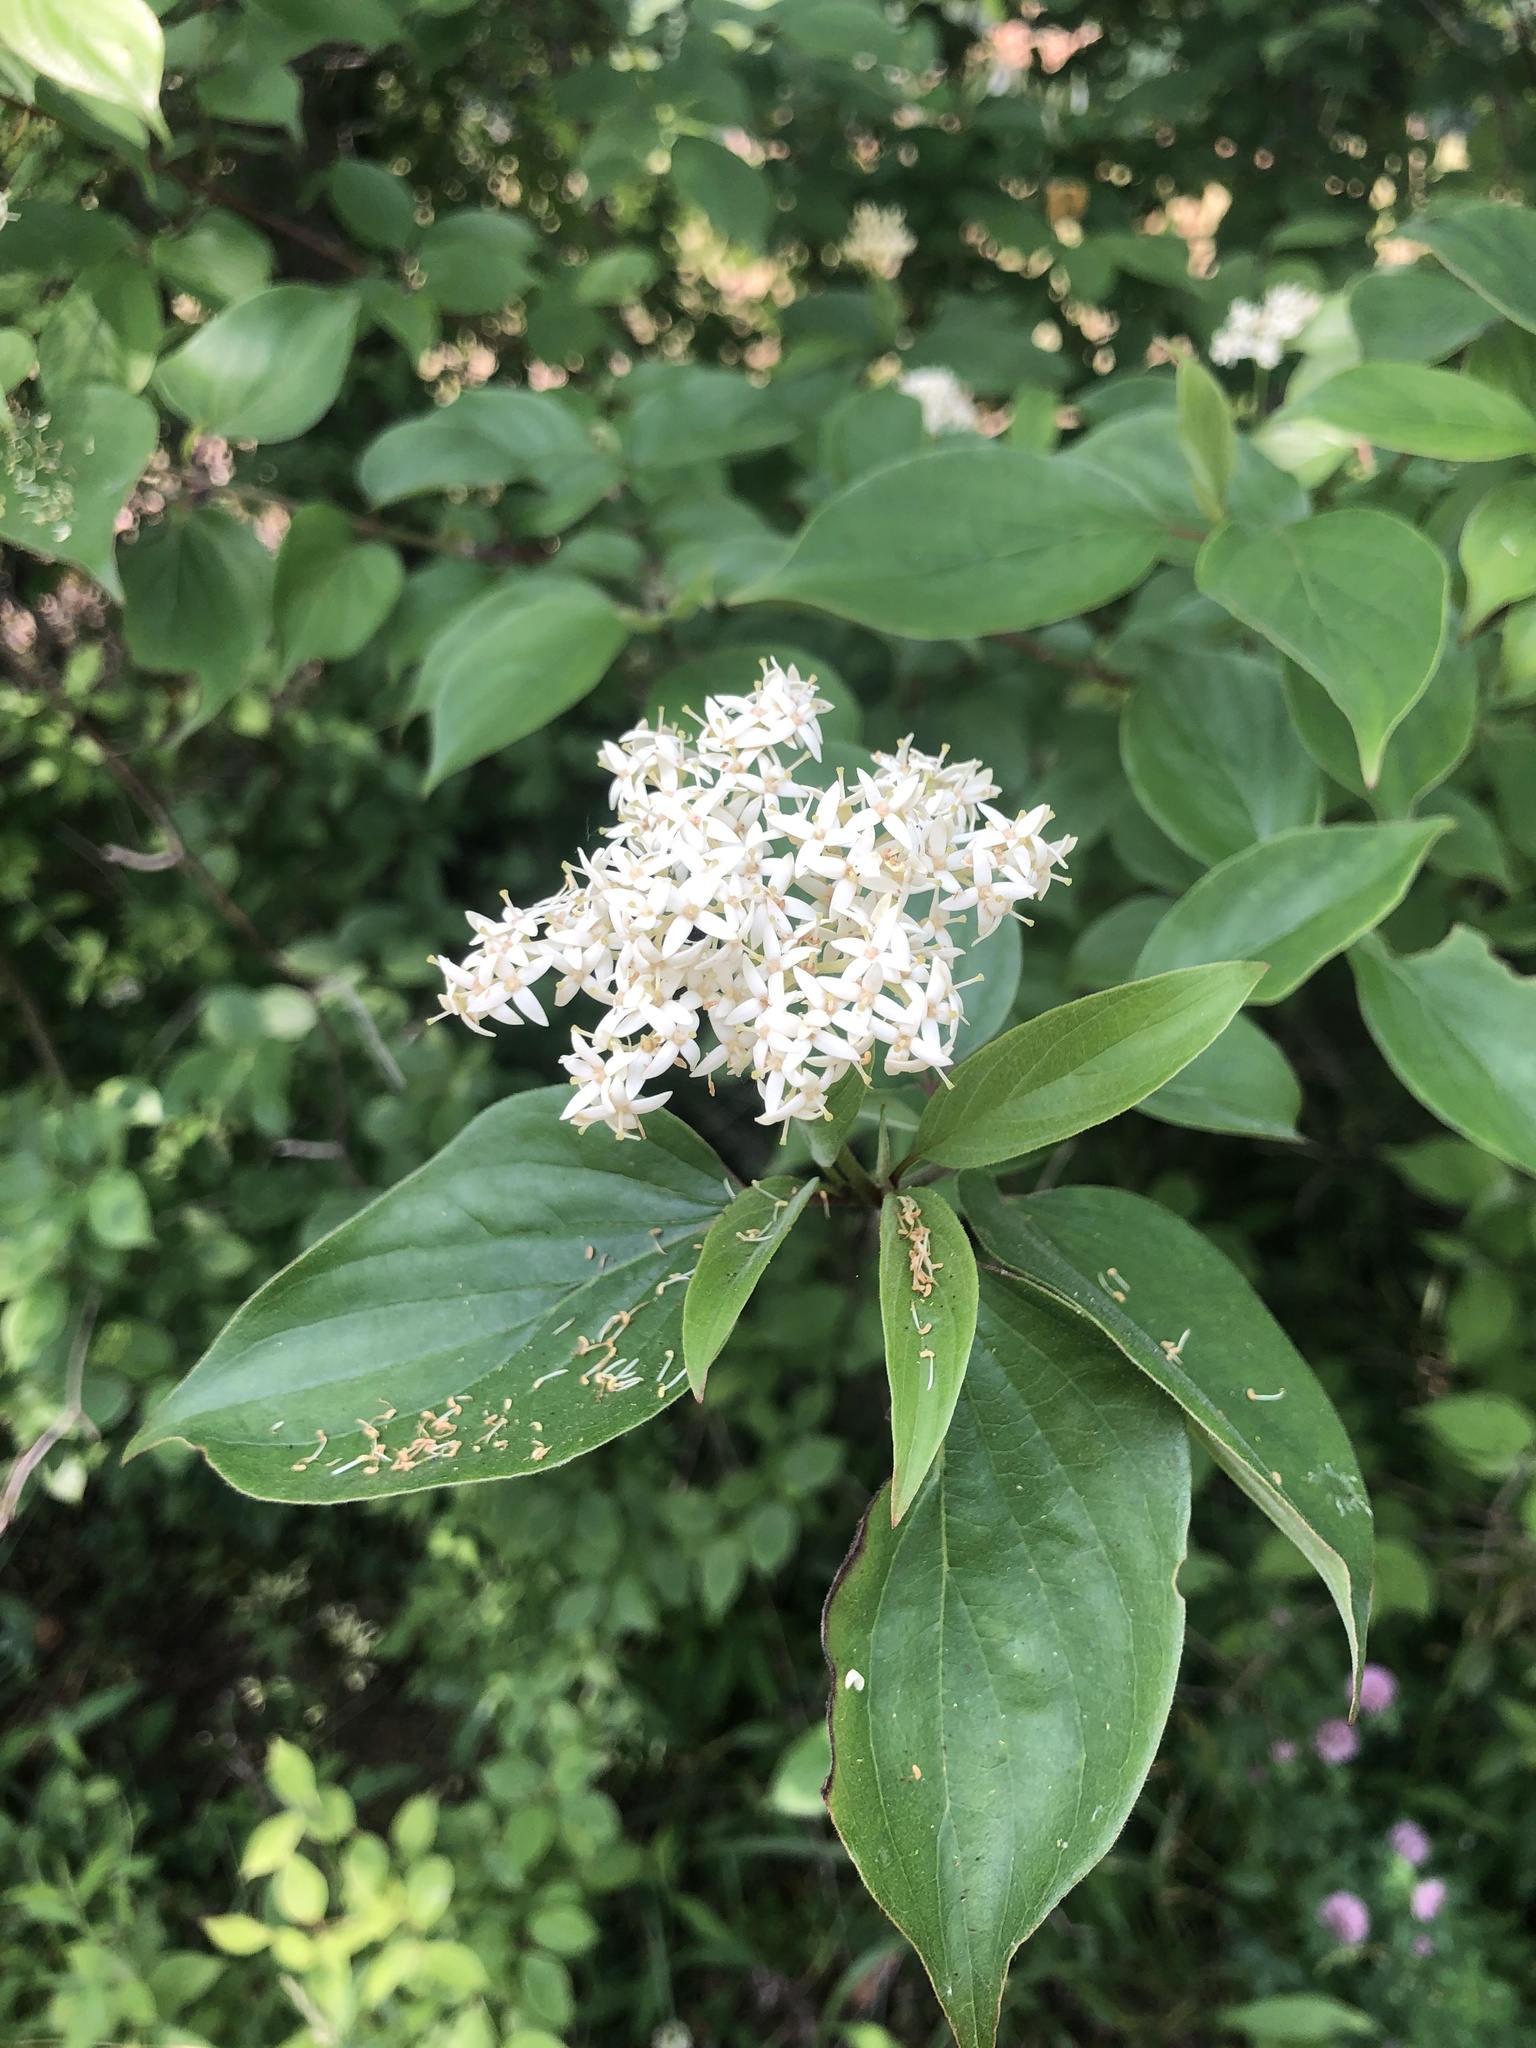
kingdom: Plantae
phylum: Tracheophyta
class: Magnoliopsida
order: Cornales
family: Cornaceae
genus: Cornus
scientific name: Cornus drummondii
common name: Rough-leaf dogwood
